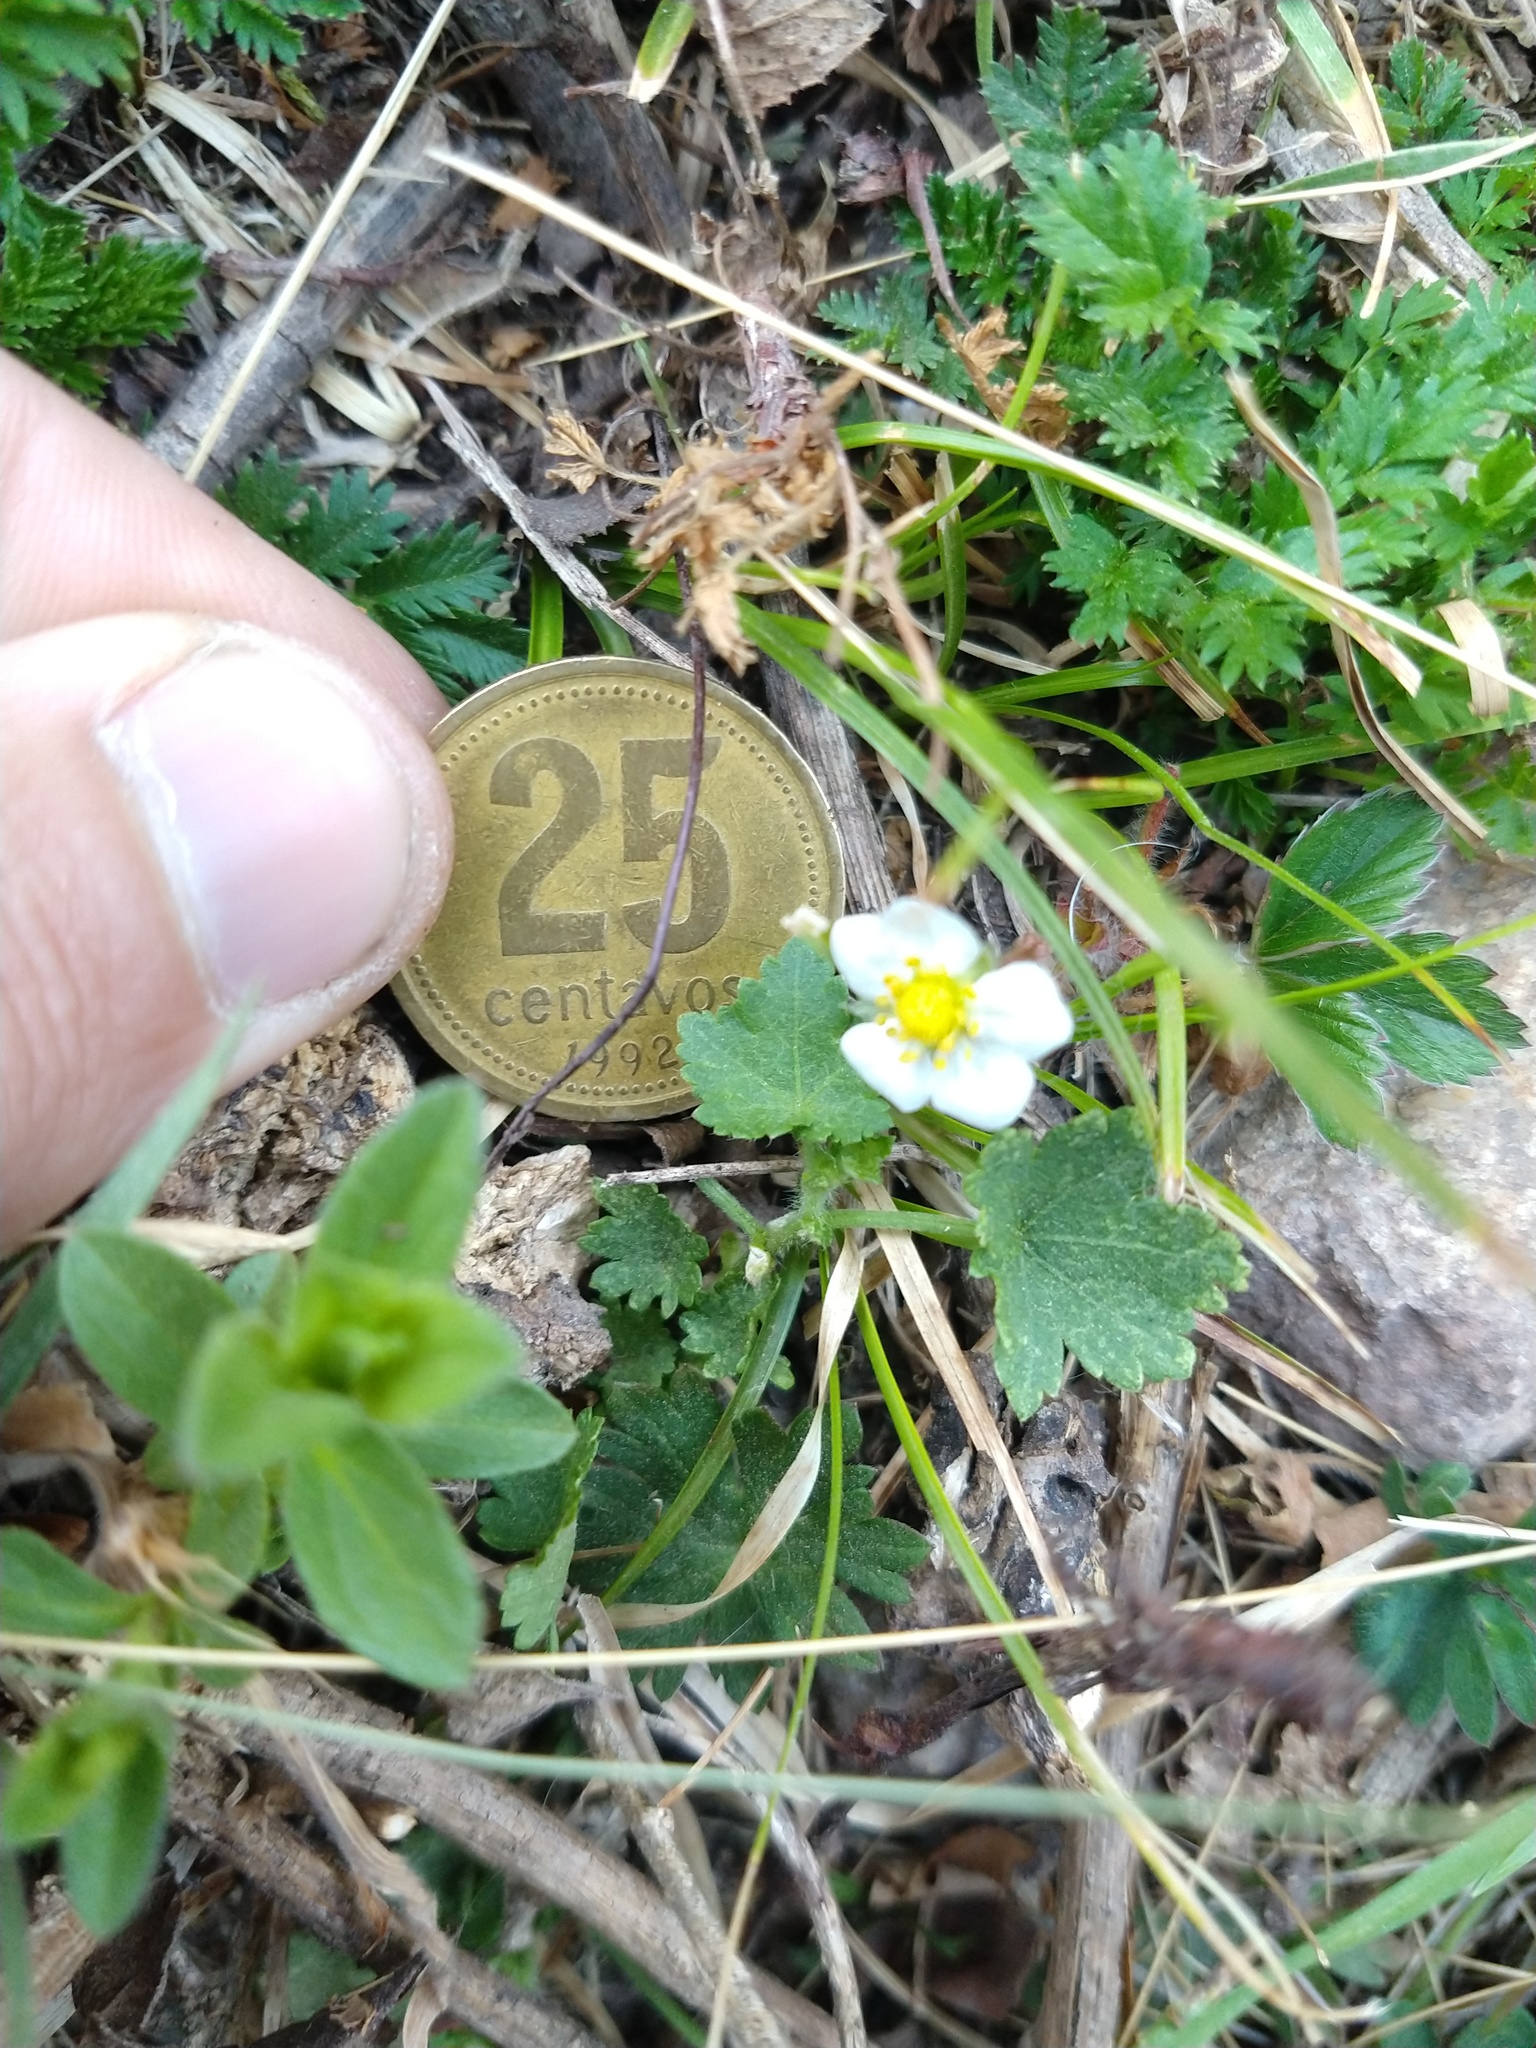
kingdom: Plantae
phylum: Tracheophyta
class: Magnoliopsida
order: Rosales
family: Rosaceae
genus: Fragaria
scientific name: Fragaria vesca
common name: Wild strawberry
